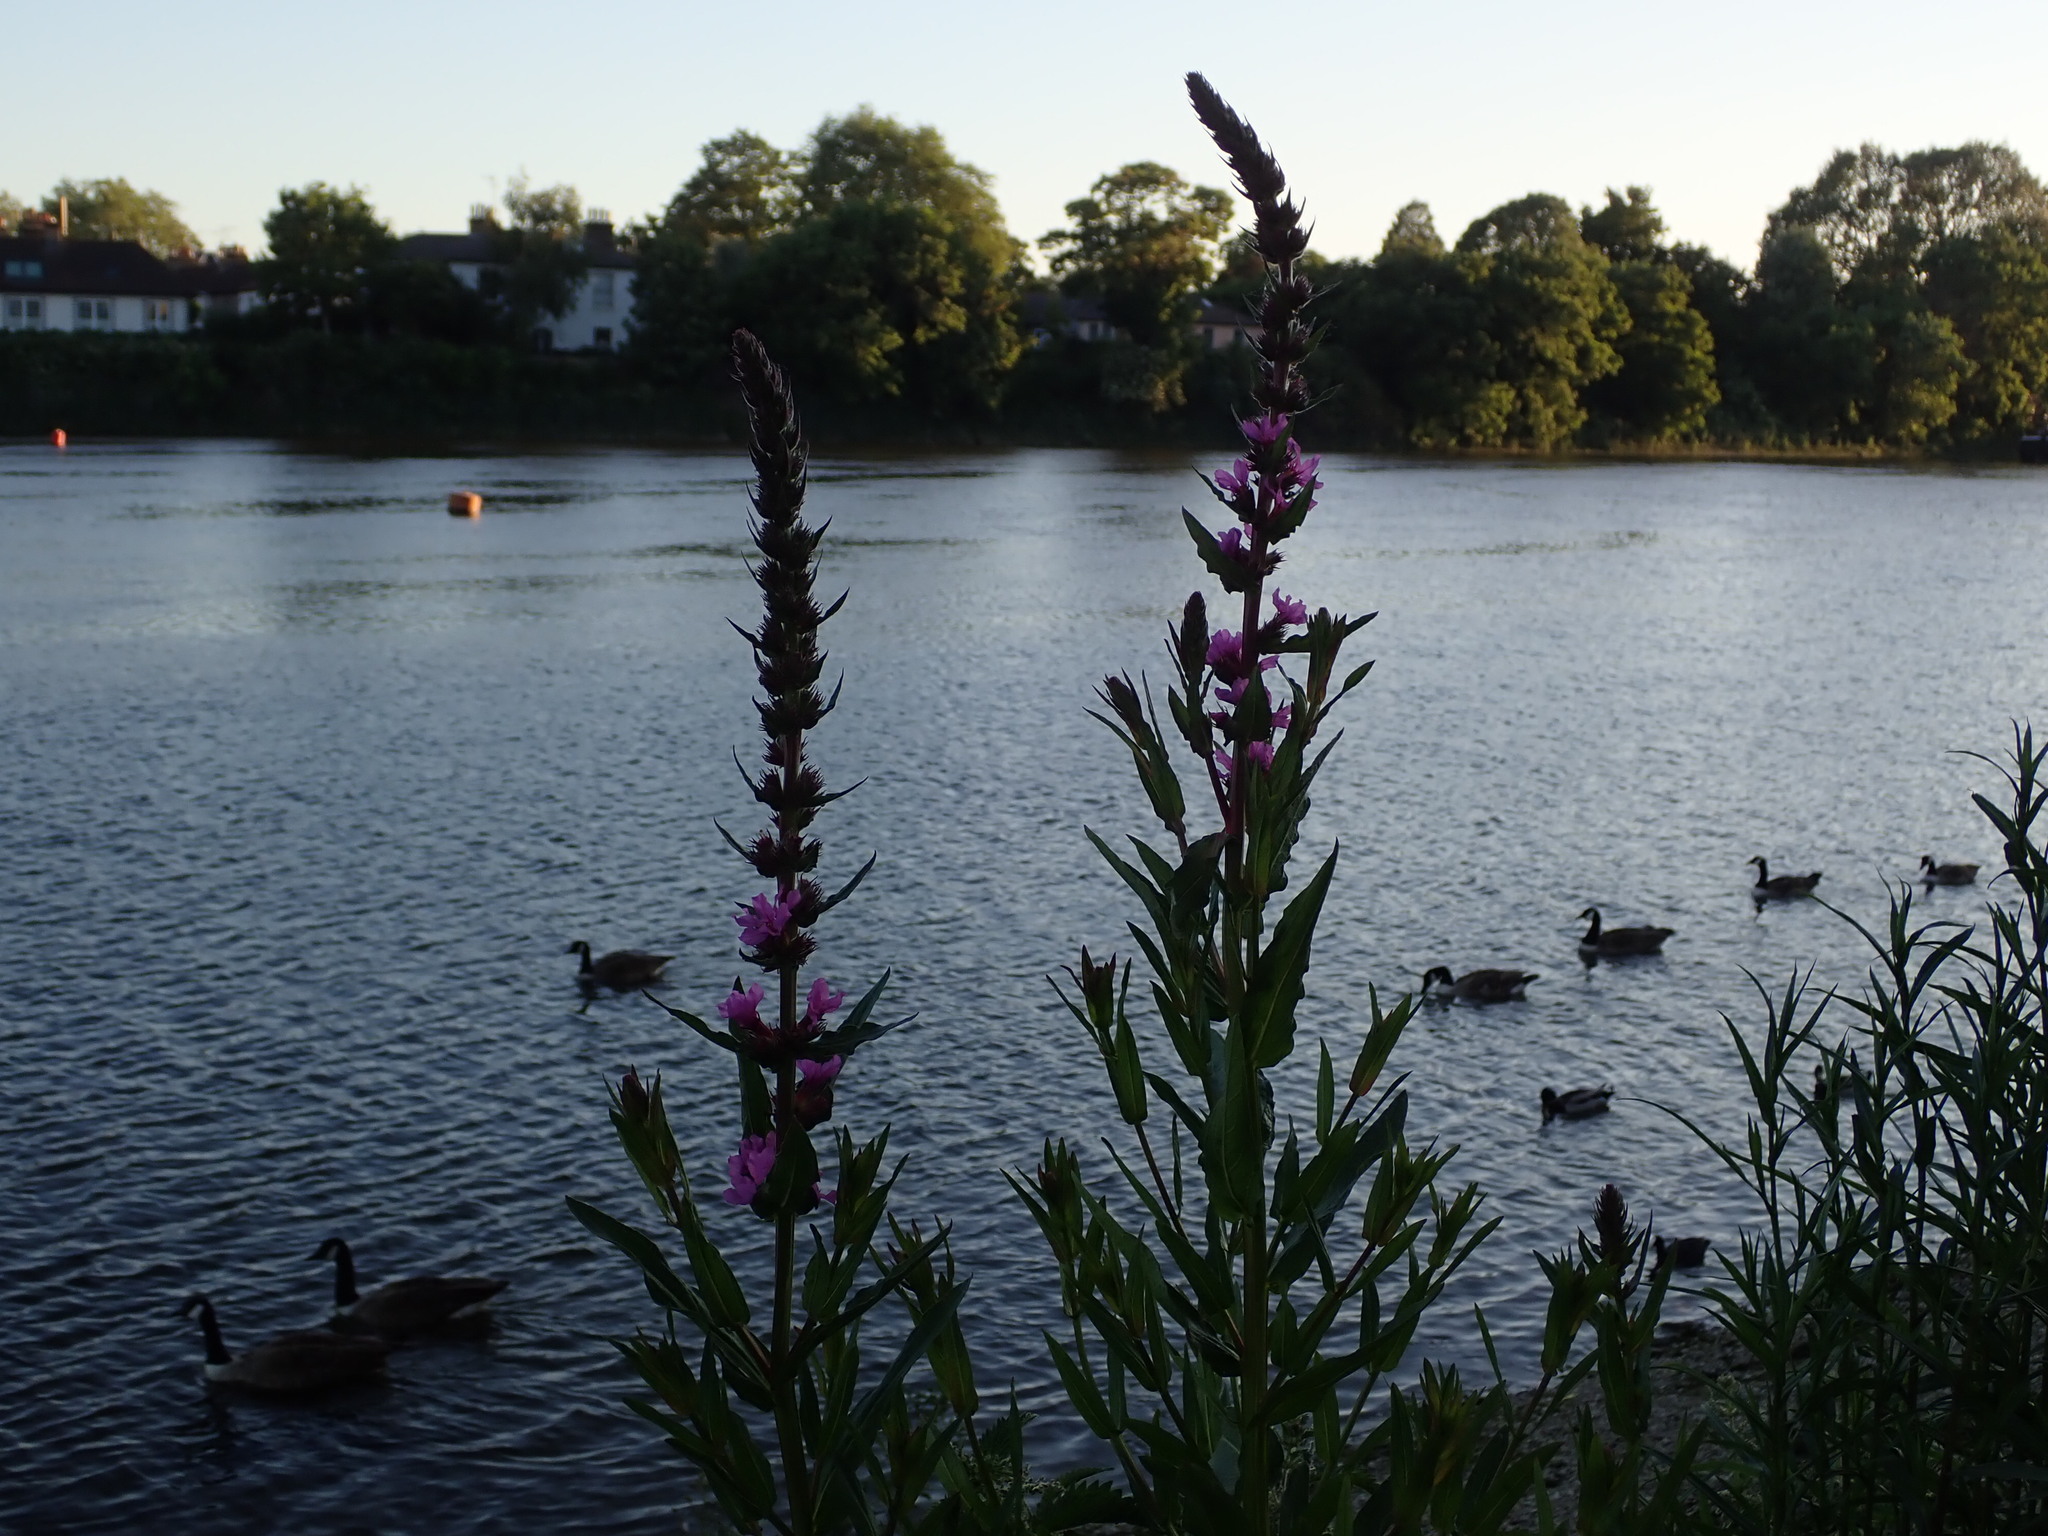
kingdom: Plantae
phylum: Tracheophyta
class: Magnoliopsida
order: Myrtales
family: Lythraceae
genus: Lythrum
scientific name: Lythrum salicaria
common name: Purple loosestrife
